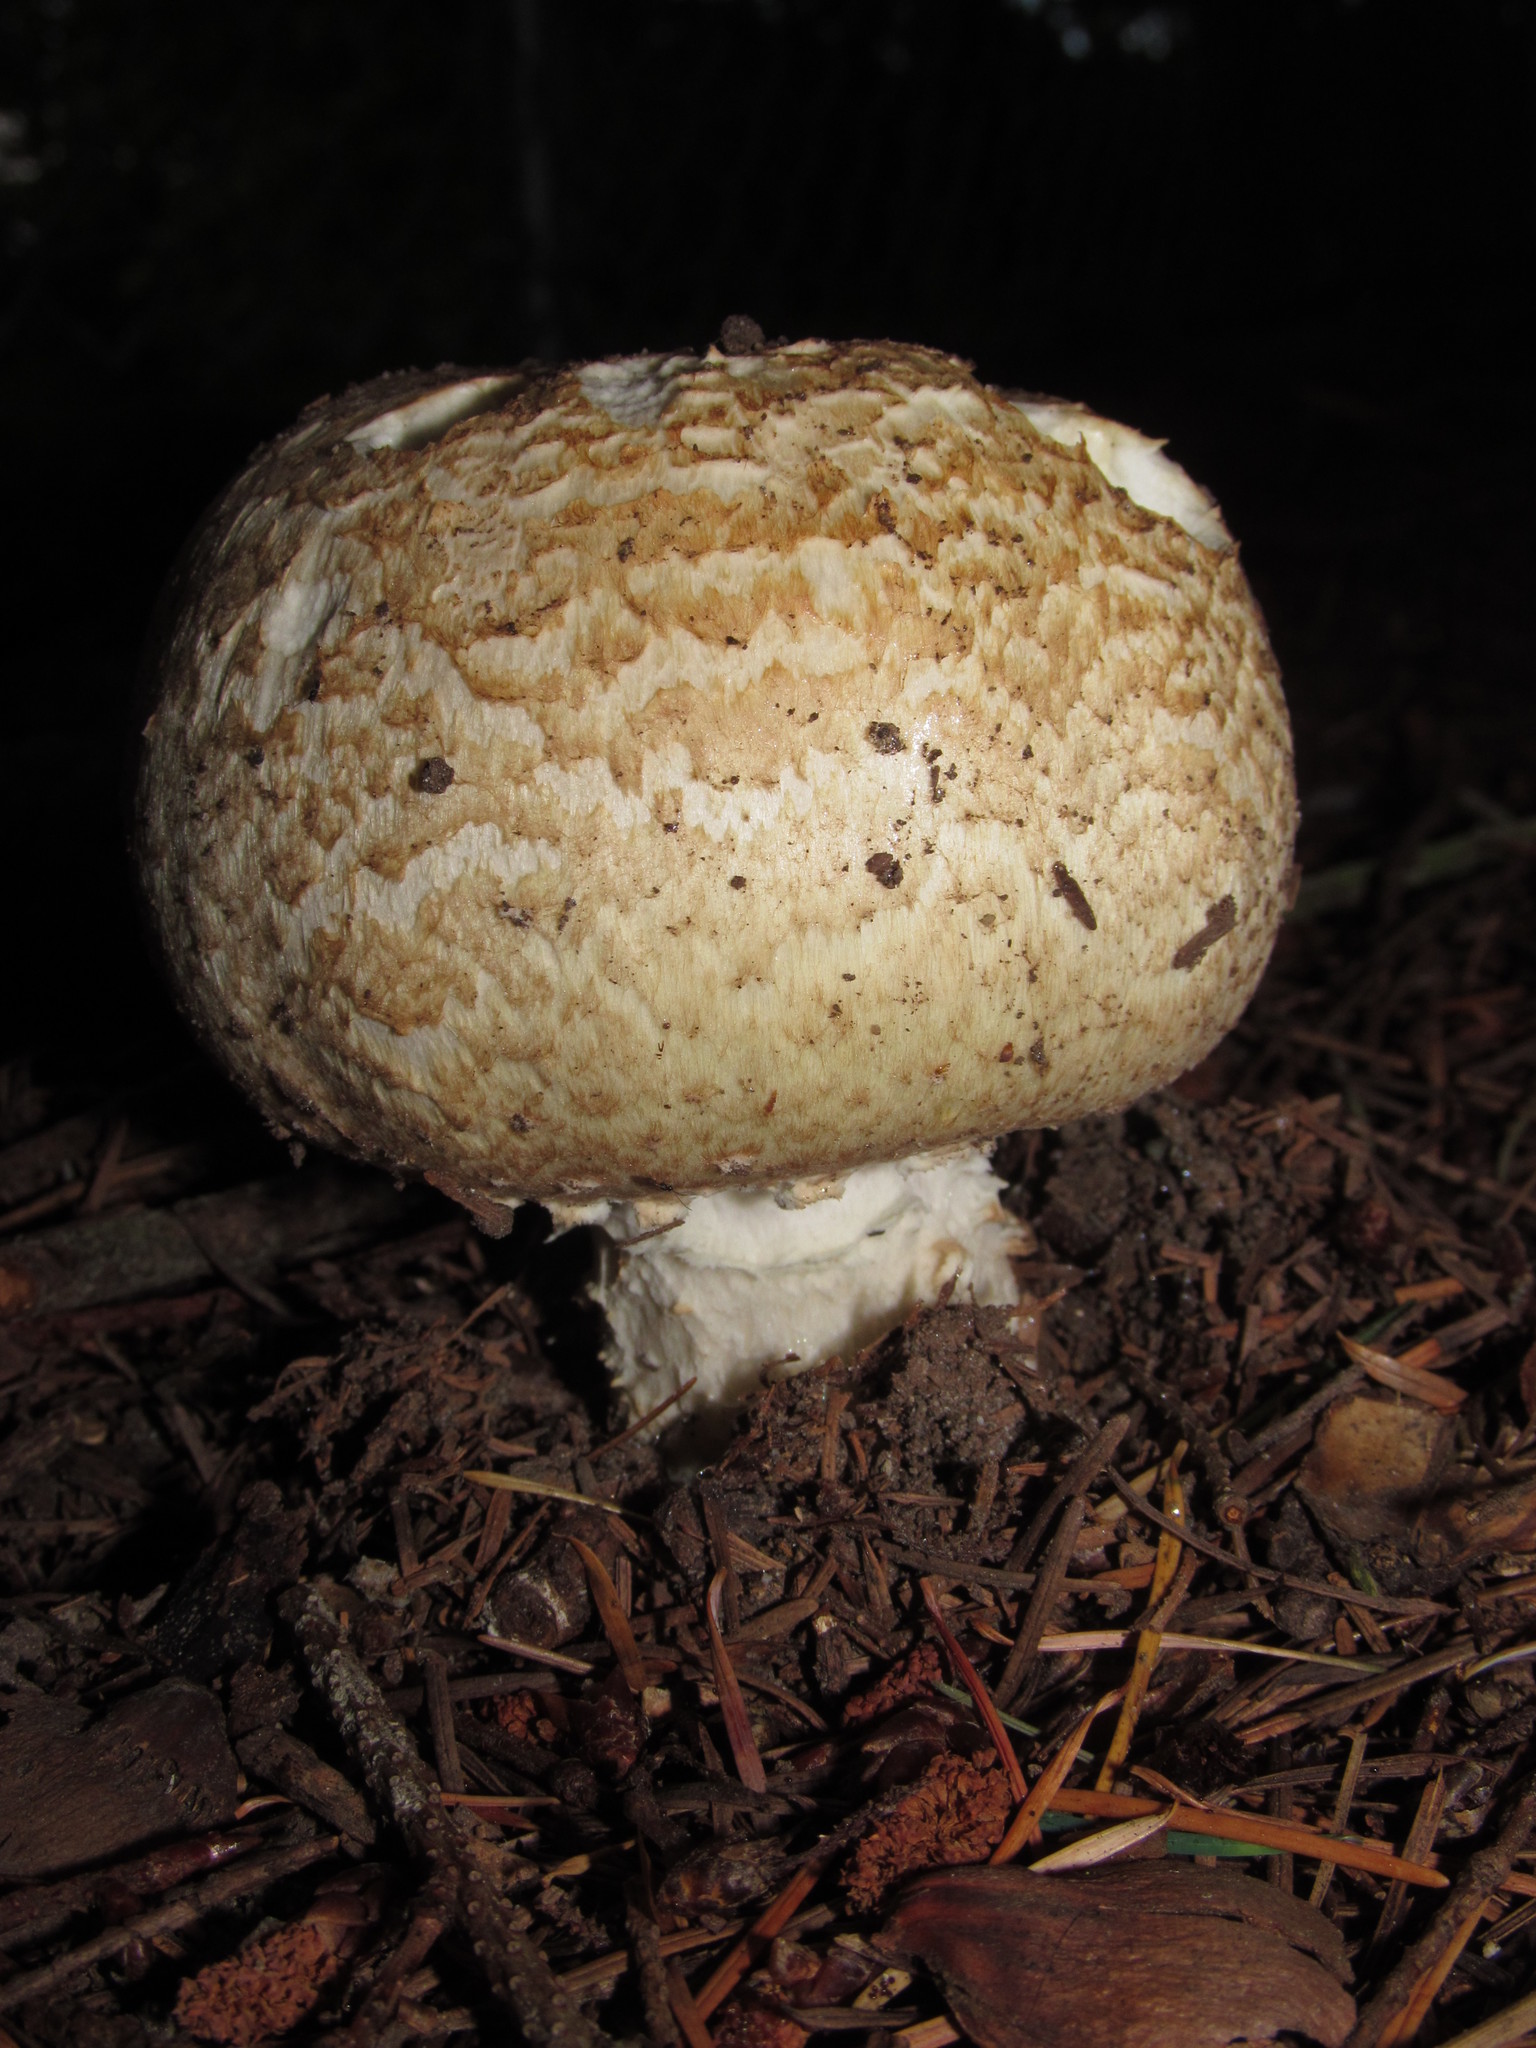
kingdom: Fungi
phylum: Basidiomycota
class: Agaricomycetes
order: Agaricales
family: Agaricaceae
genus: Agaricus
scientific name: Agaricus augustus
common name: Prince
